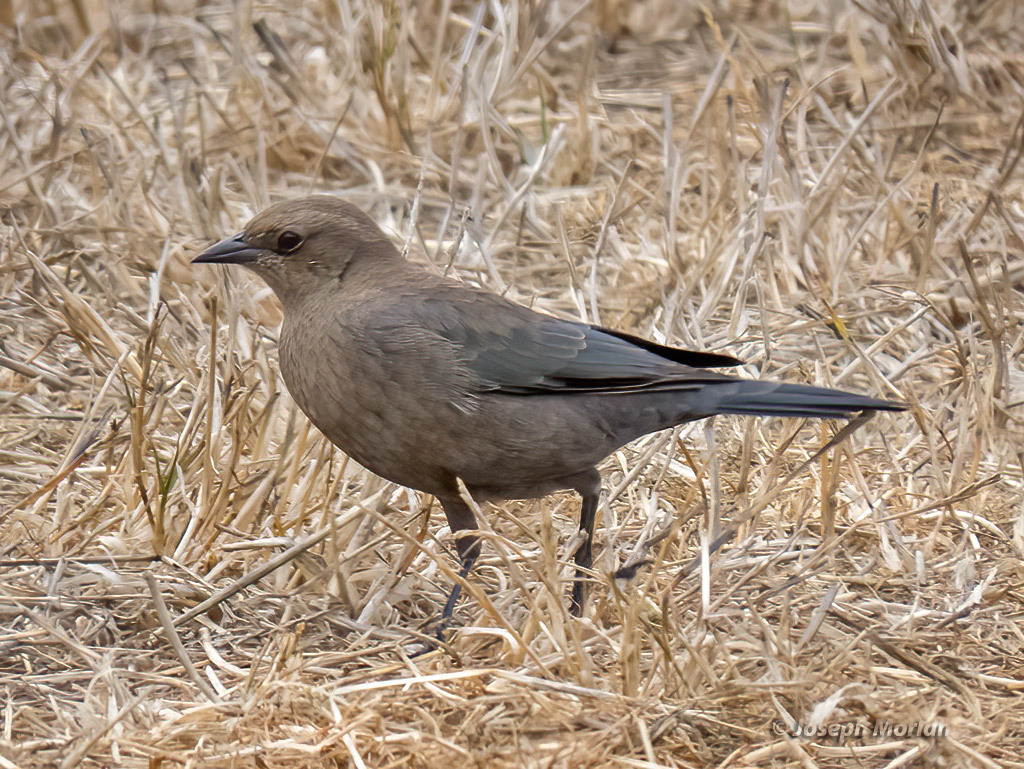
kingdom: Animalia
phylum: Chordata
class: Aves
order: Passeriformes
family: Icteridae
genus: Euphagus
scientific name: Euphagus cyanocephalus
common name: Brewer's blackbird
